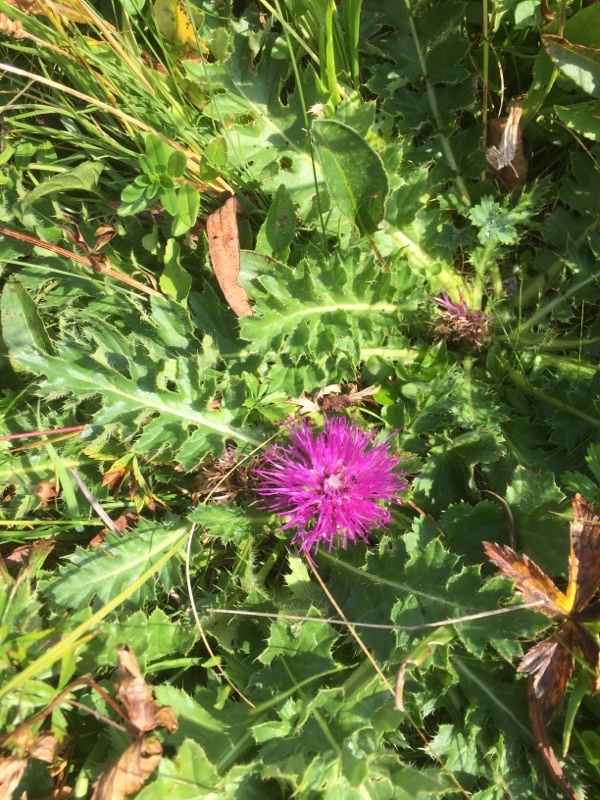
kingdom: Plantae
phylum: Tracheophyta
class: Magnoliopsida
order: Asterales
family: Asteraceae
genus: Cirsium
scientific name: Cirsium acaulon
